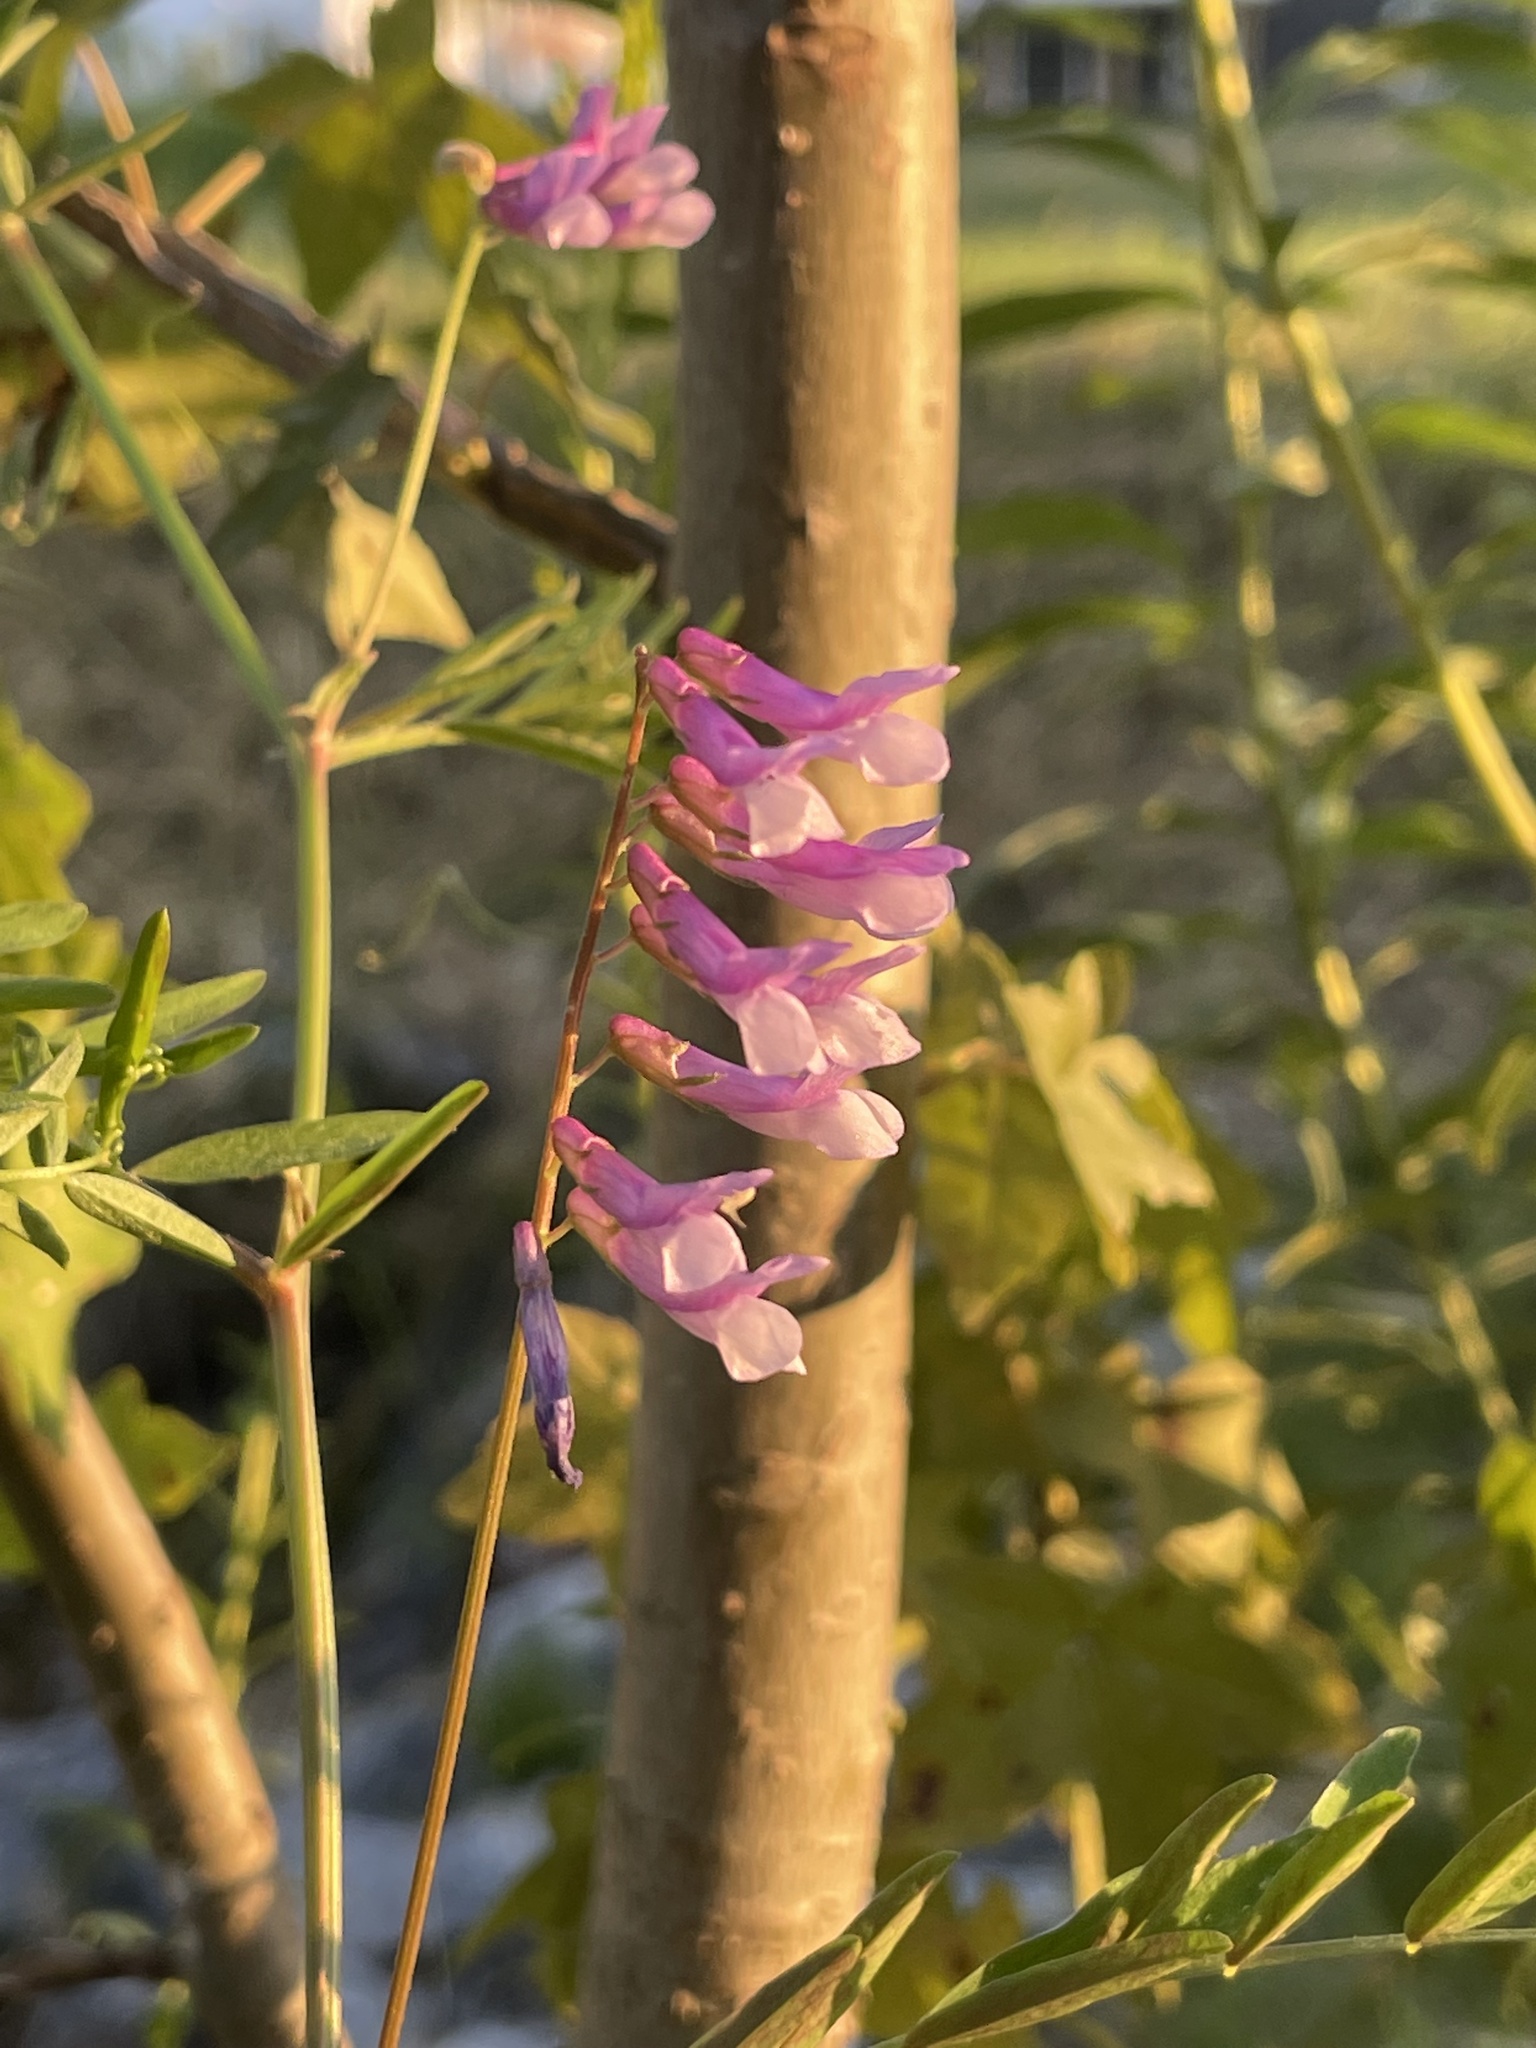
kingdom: Plantae
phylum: Tracheophyta
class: Magnoliopsida
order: Fabales
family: Fabaceae
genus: Vicia
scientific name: Vicia villosa
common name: Fodder vetch
